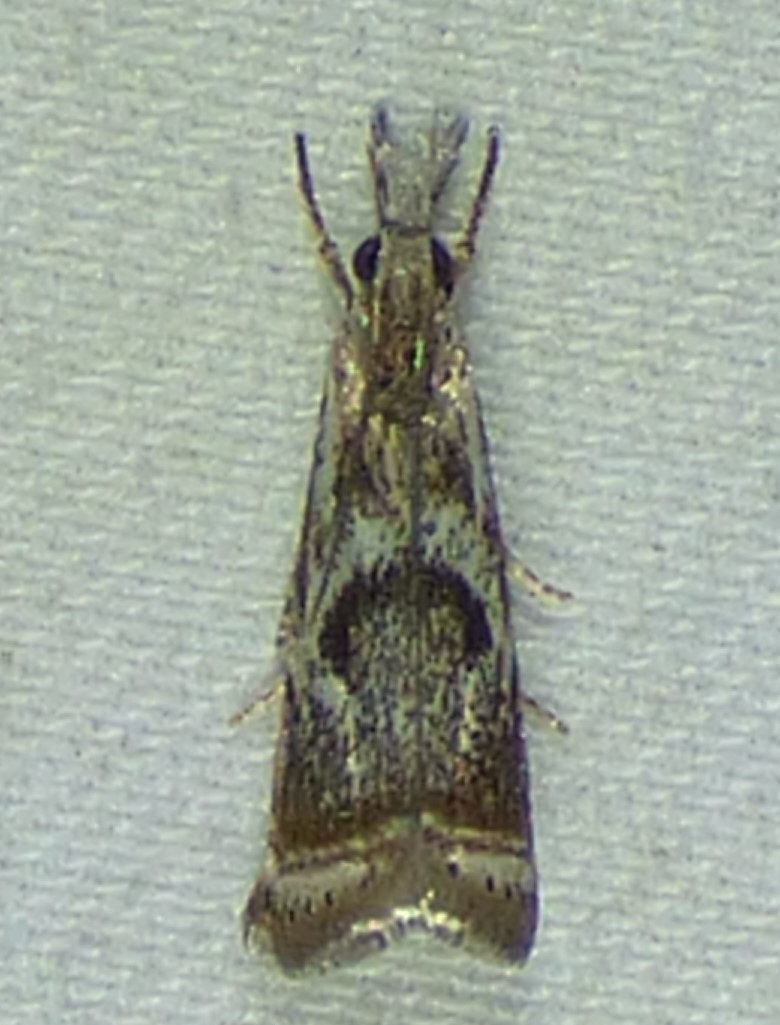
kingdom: Animalia
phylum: Arthropoda
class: Insecta
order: Lepidoptera
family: Crambidae
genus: Microcrambus
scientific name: Microcrambus elegans
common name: Elegant grass-veneer
